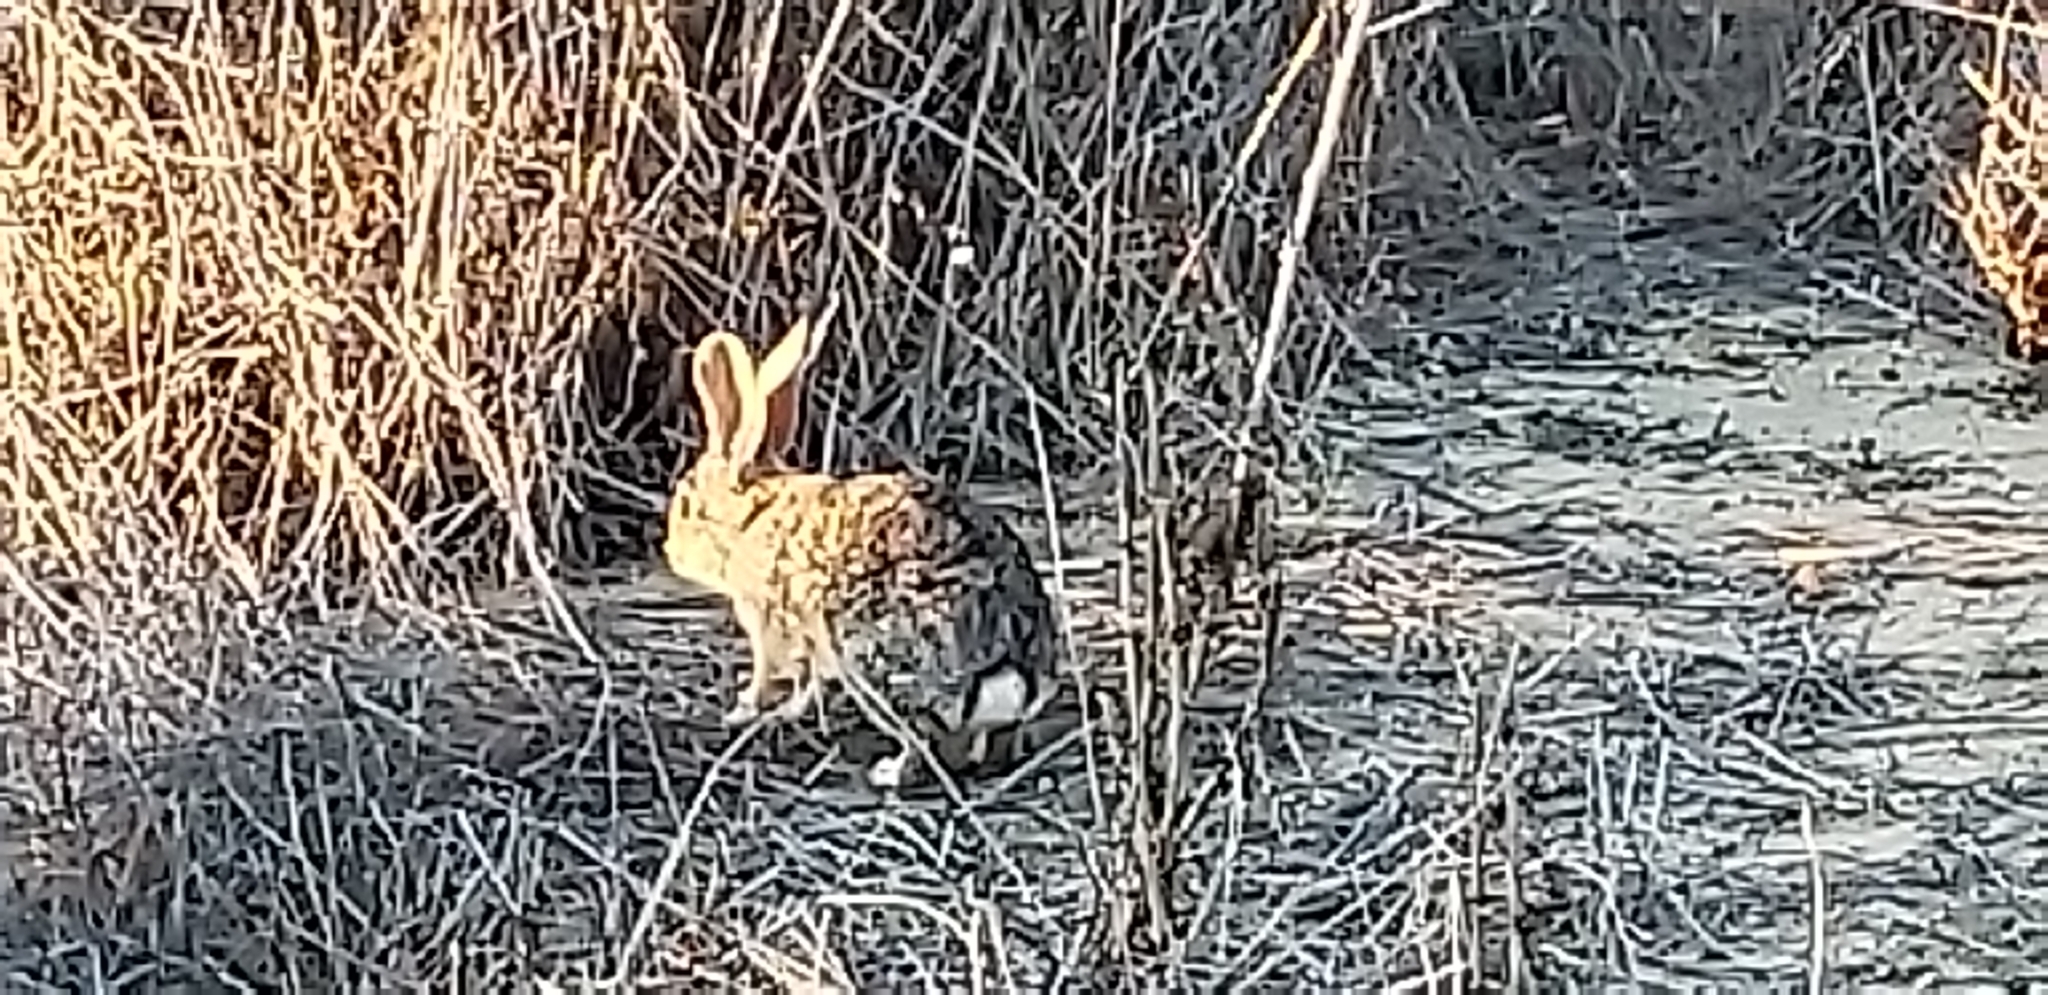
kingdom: Animalia
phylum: Chordata
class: Mammalia
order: Lagomorpha
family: Leporidae
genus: Sylvilagus
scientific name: Sylvilagus audubonii
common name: Desert cottontail
